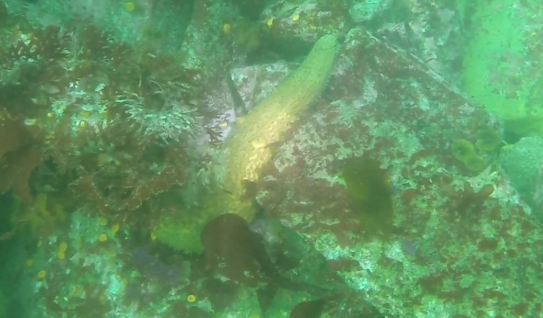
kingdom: Animalia
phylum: Echinodermata
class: Holothuroidea
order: Synallactida
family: Stichopodidae
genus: Apostichopus
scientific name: Apostichopus parvimensis
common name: Warty sea cucumber
